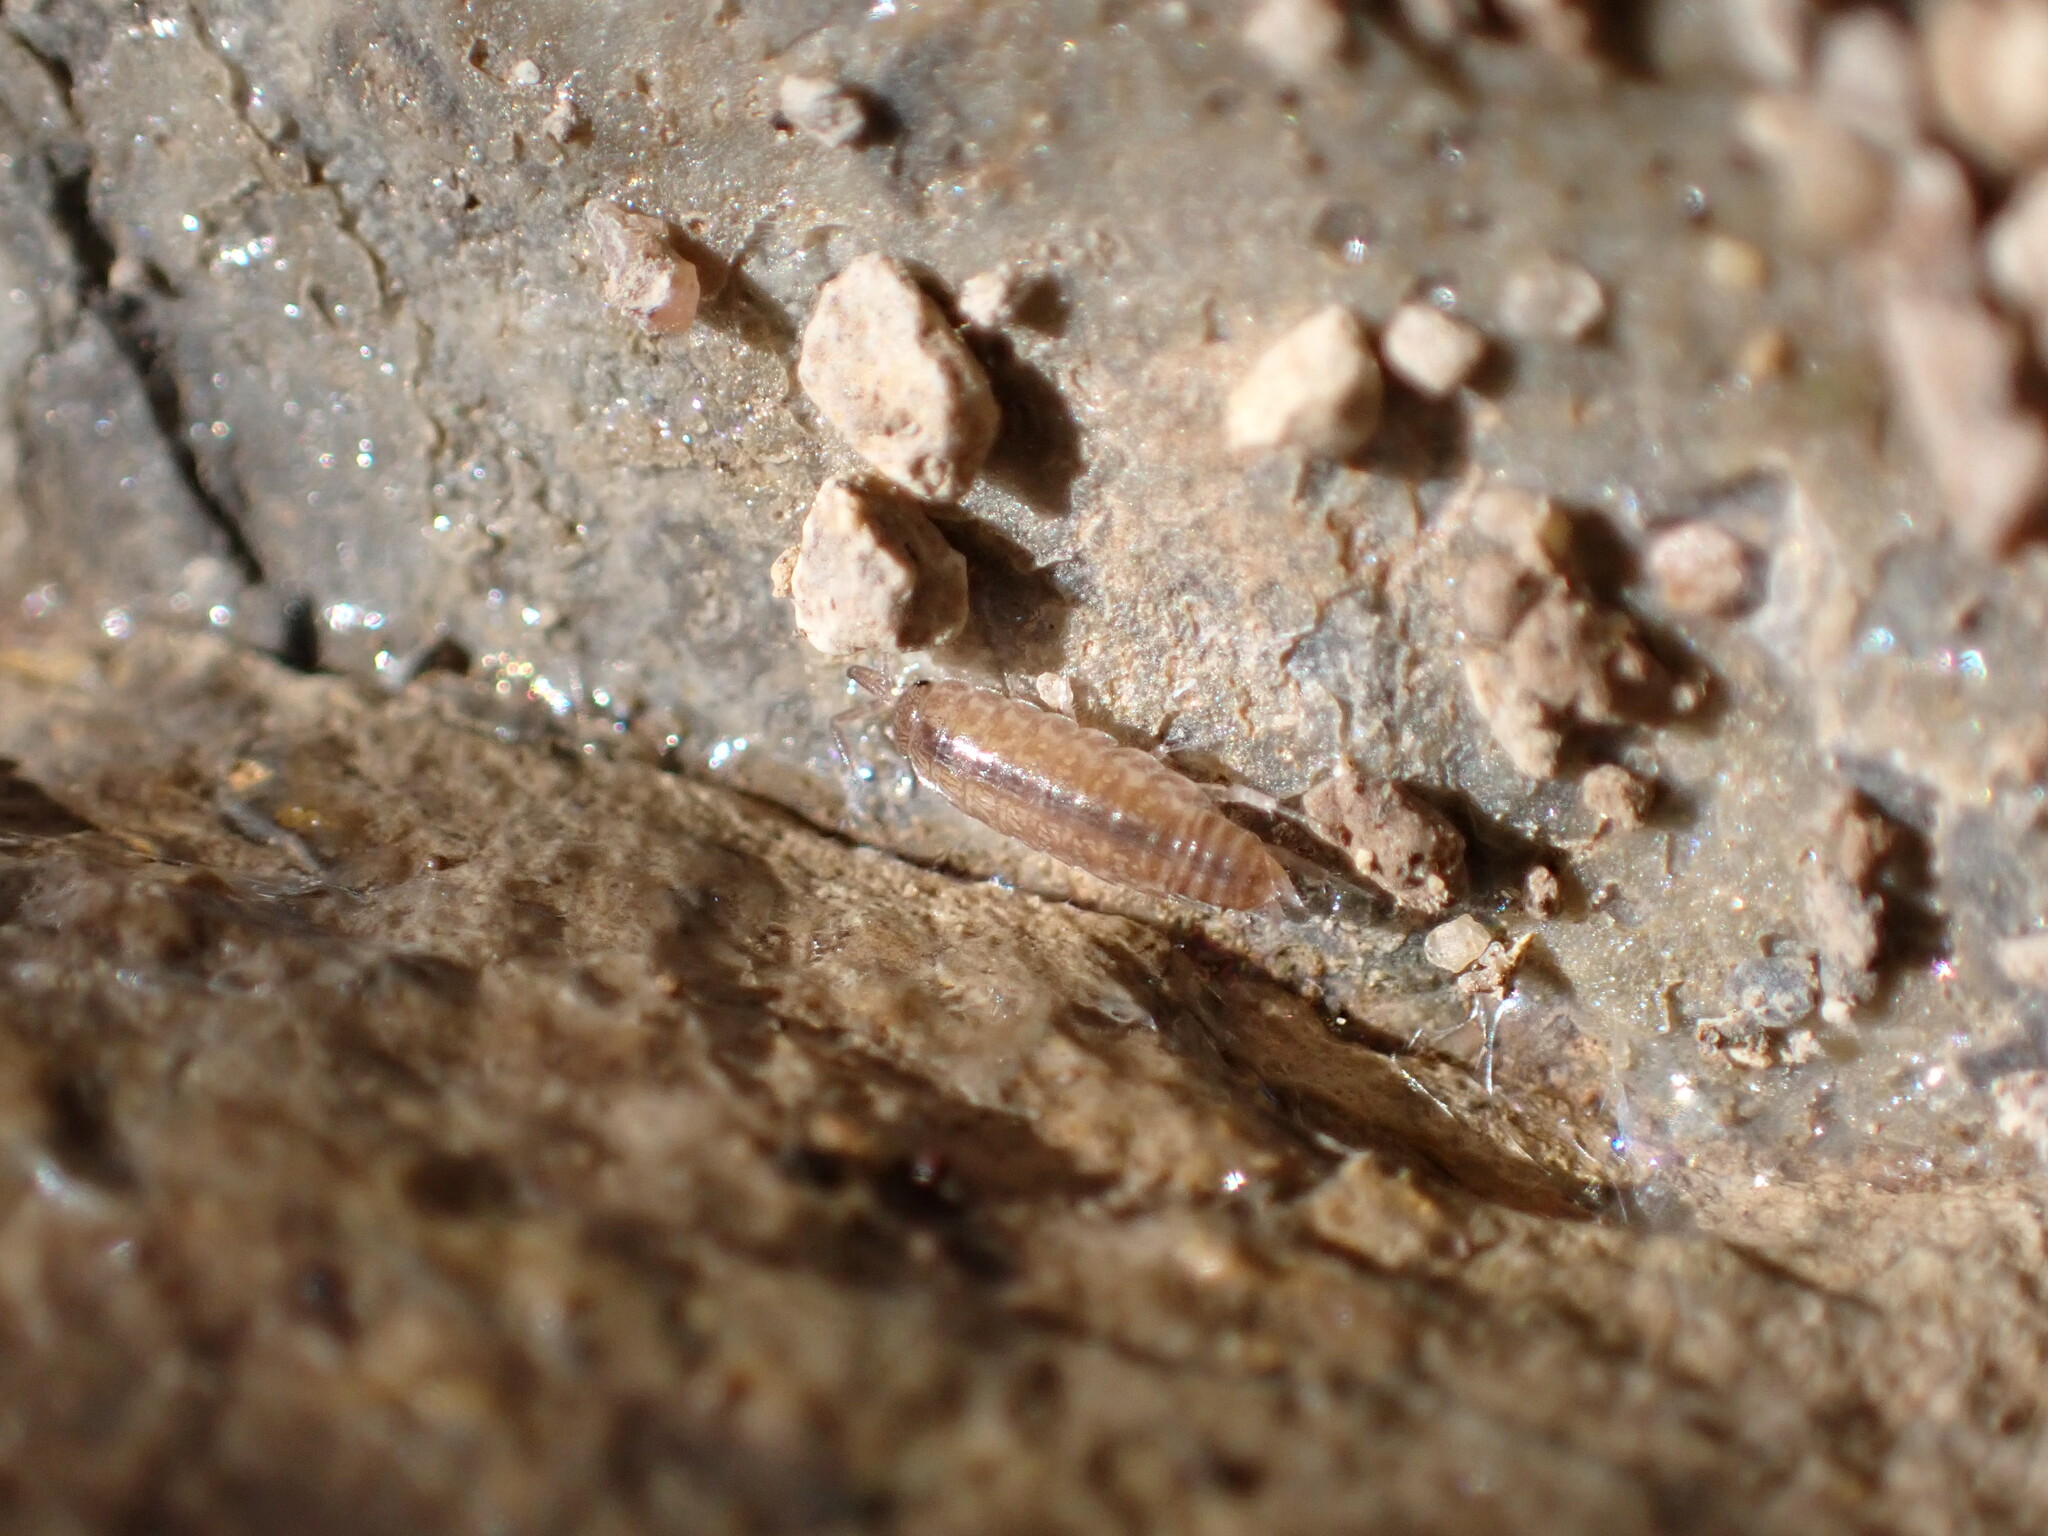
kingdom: Animalia
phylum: Arthropoda
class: Malacostraca
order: Isopoda
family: Philosciidae
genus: Chaetophiloscia
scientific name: Chaetophiloscia sicula
